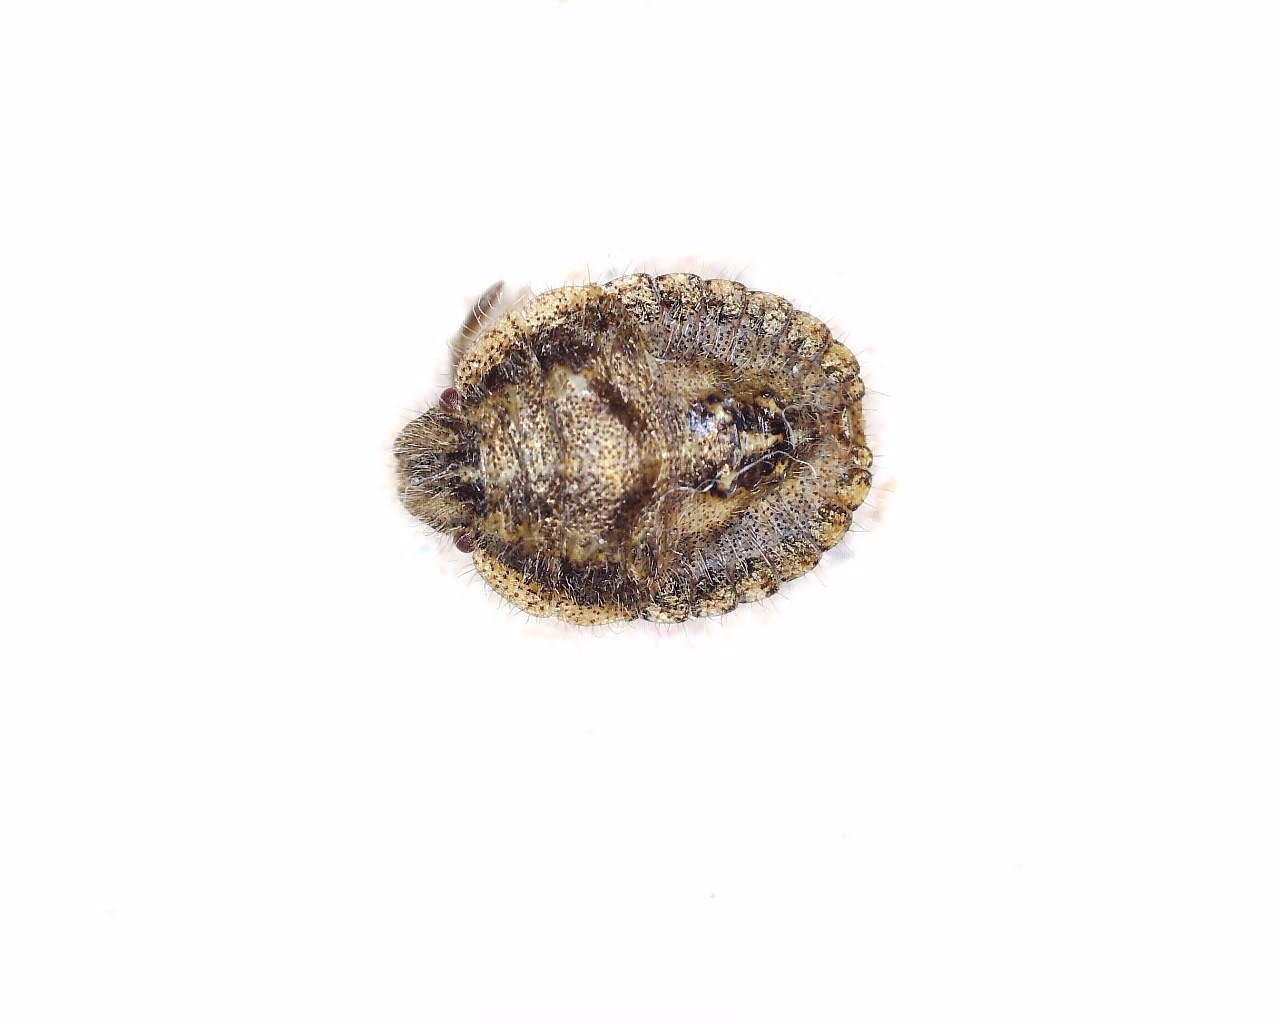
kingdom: Animalia
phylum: Arthropoda
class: Insecta
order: Hemiptera
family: Pentatomidae
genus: Dolycoris
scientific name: Dolycoris baccarum
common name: Sloe bug
